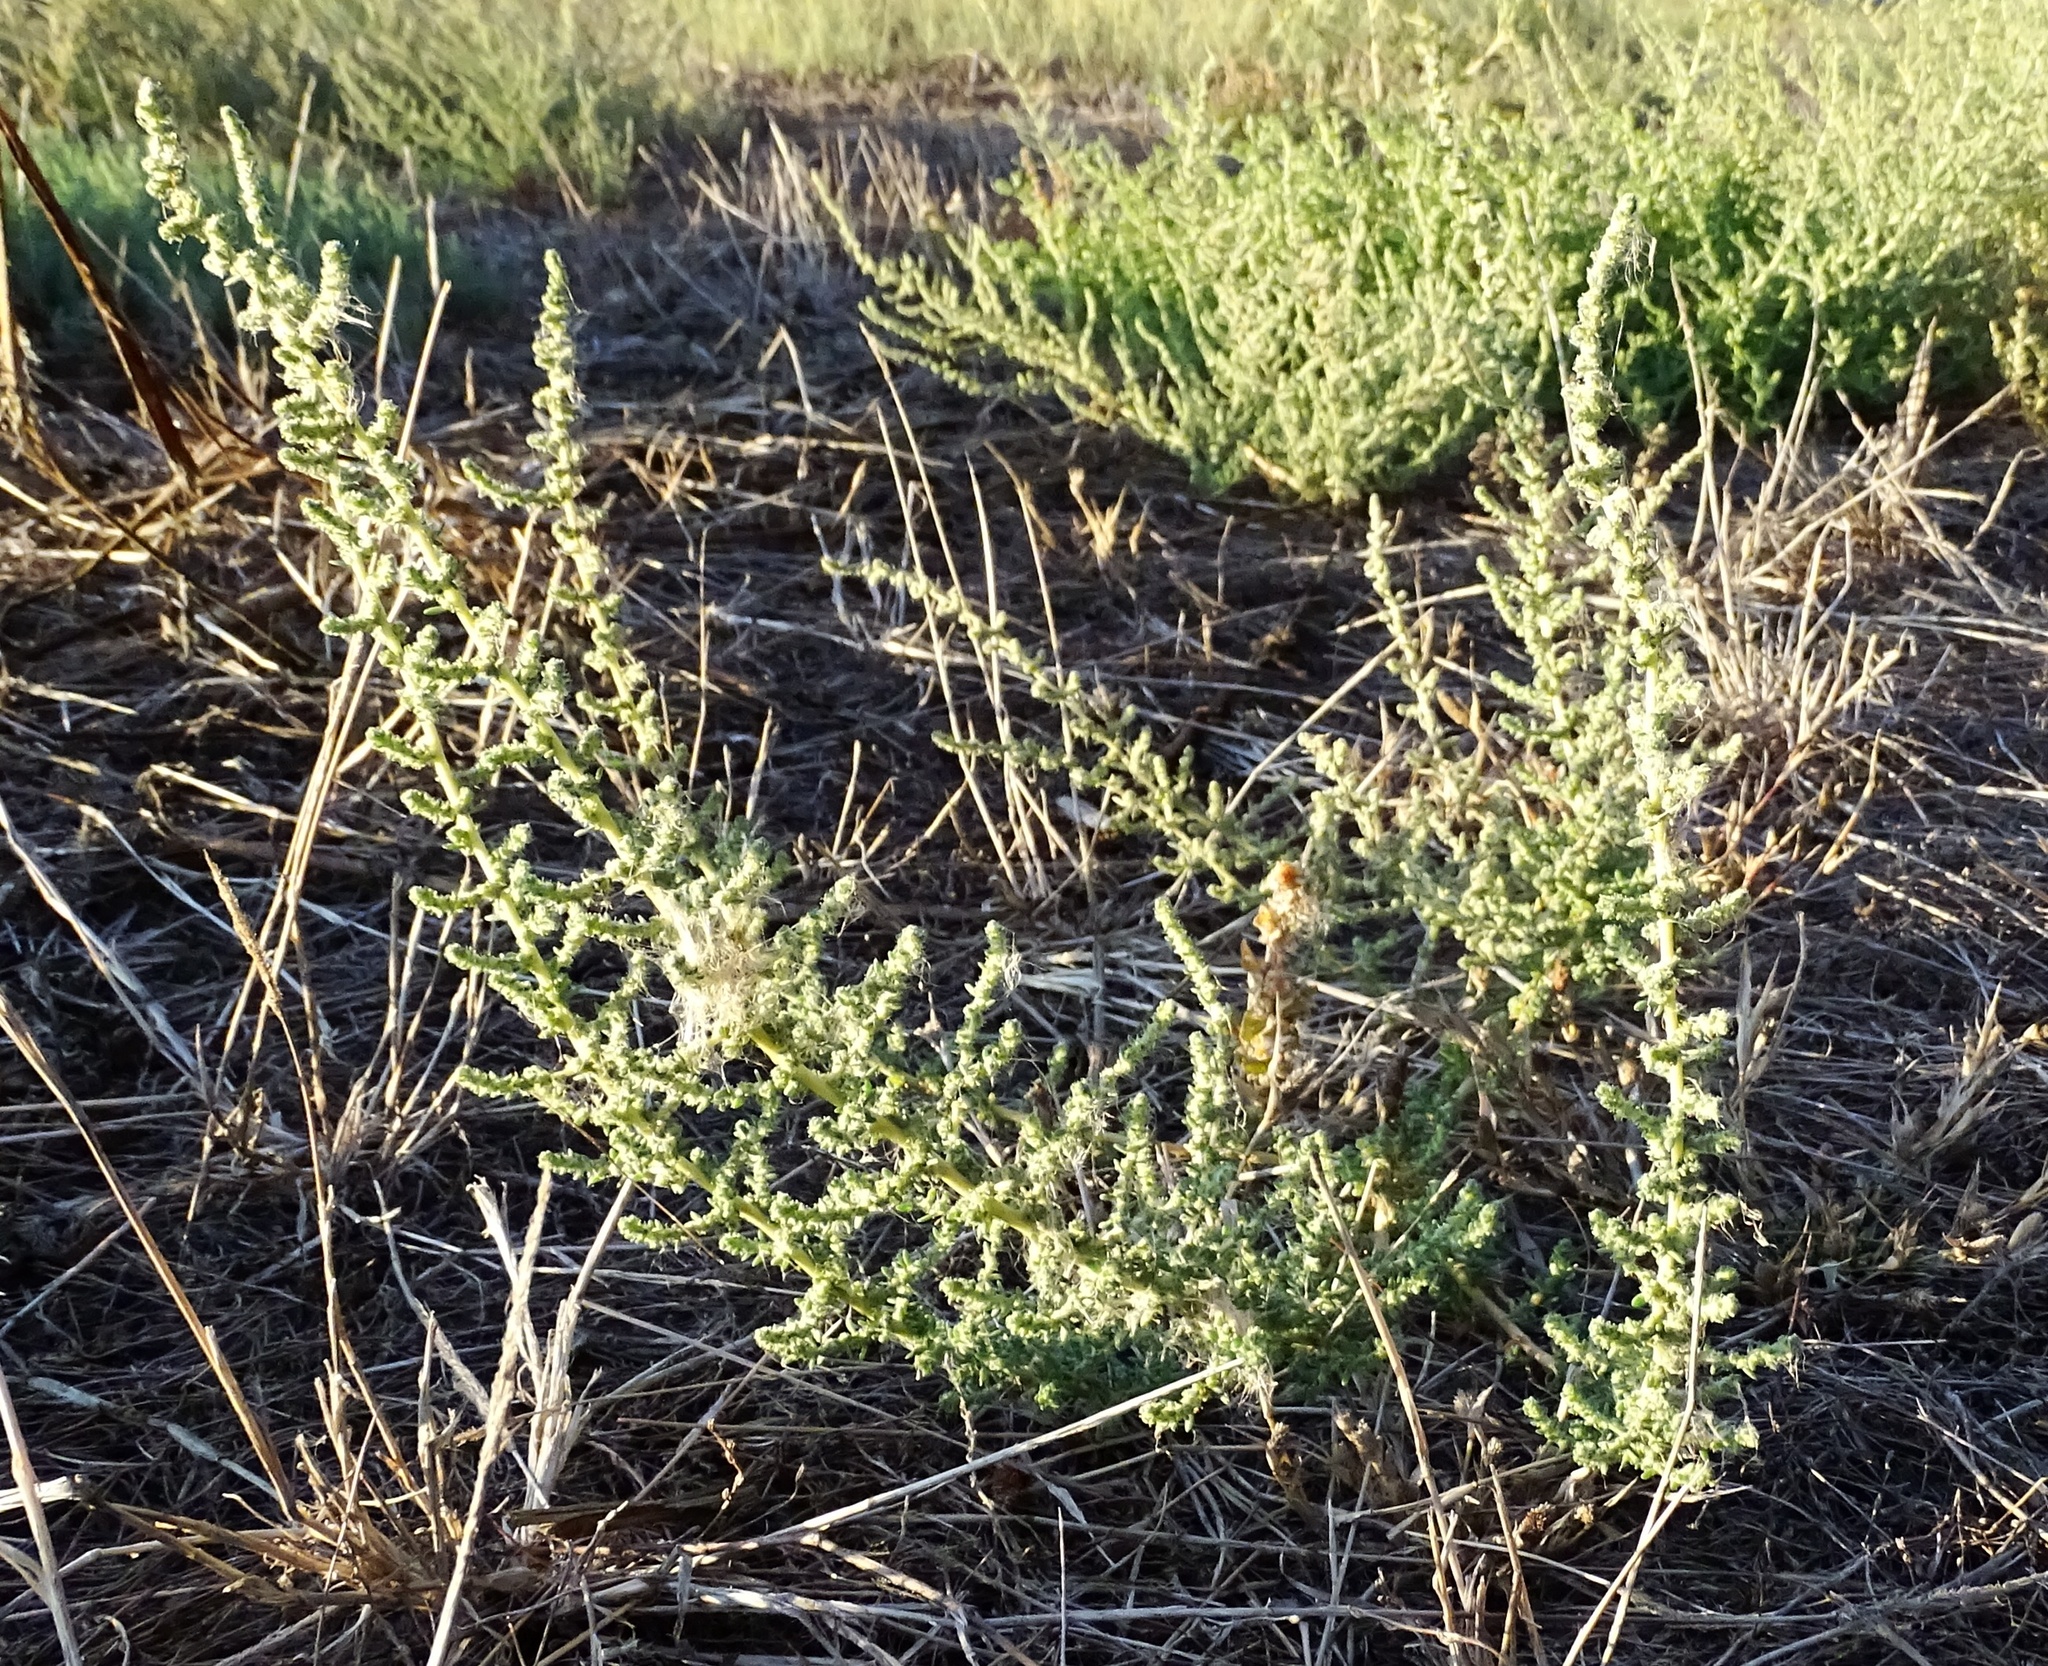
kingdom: Plantae
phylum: Tracheophyta
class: Magnoliopsida
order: Caryophyllales
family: Amaranthaceae
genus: Bassia
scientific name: Bassia hyssopifolia
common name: Fivehorn smotherweed
